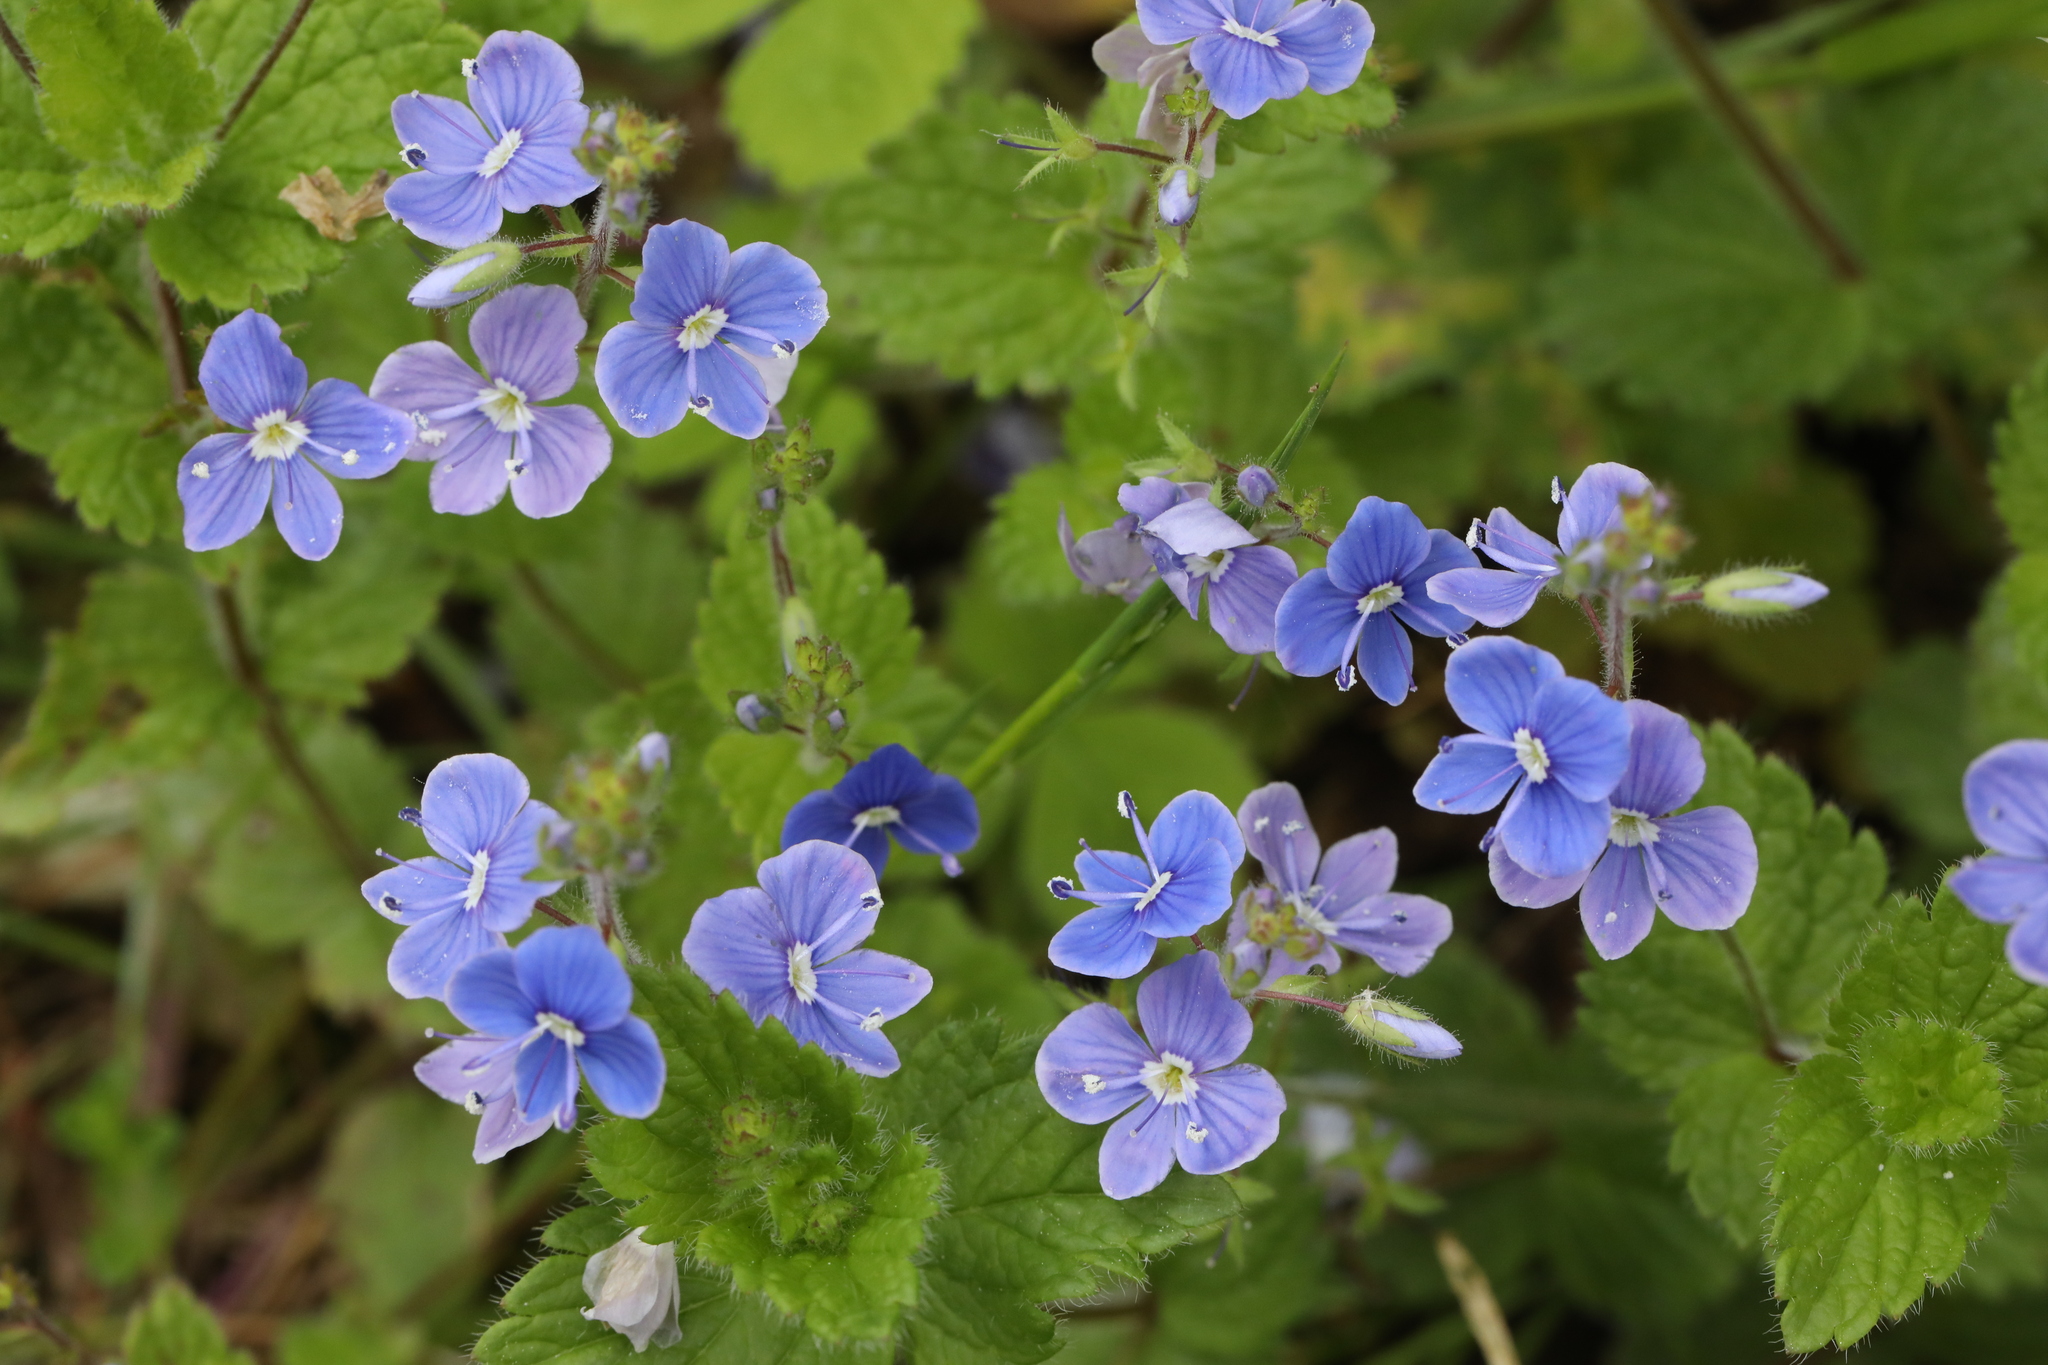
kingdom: Plantae
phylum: Tracheophyta
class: Magnoliopsida
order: Lamiales
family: Plantaginaceae
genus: Veronica
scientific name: Veronica chamaedrys
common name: Germander speedwell
